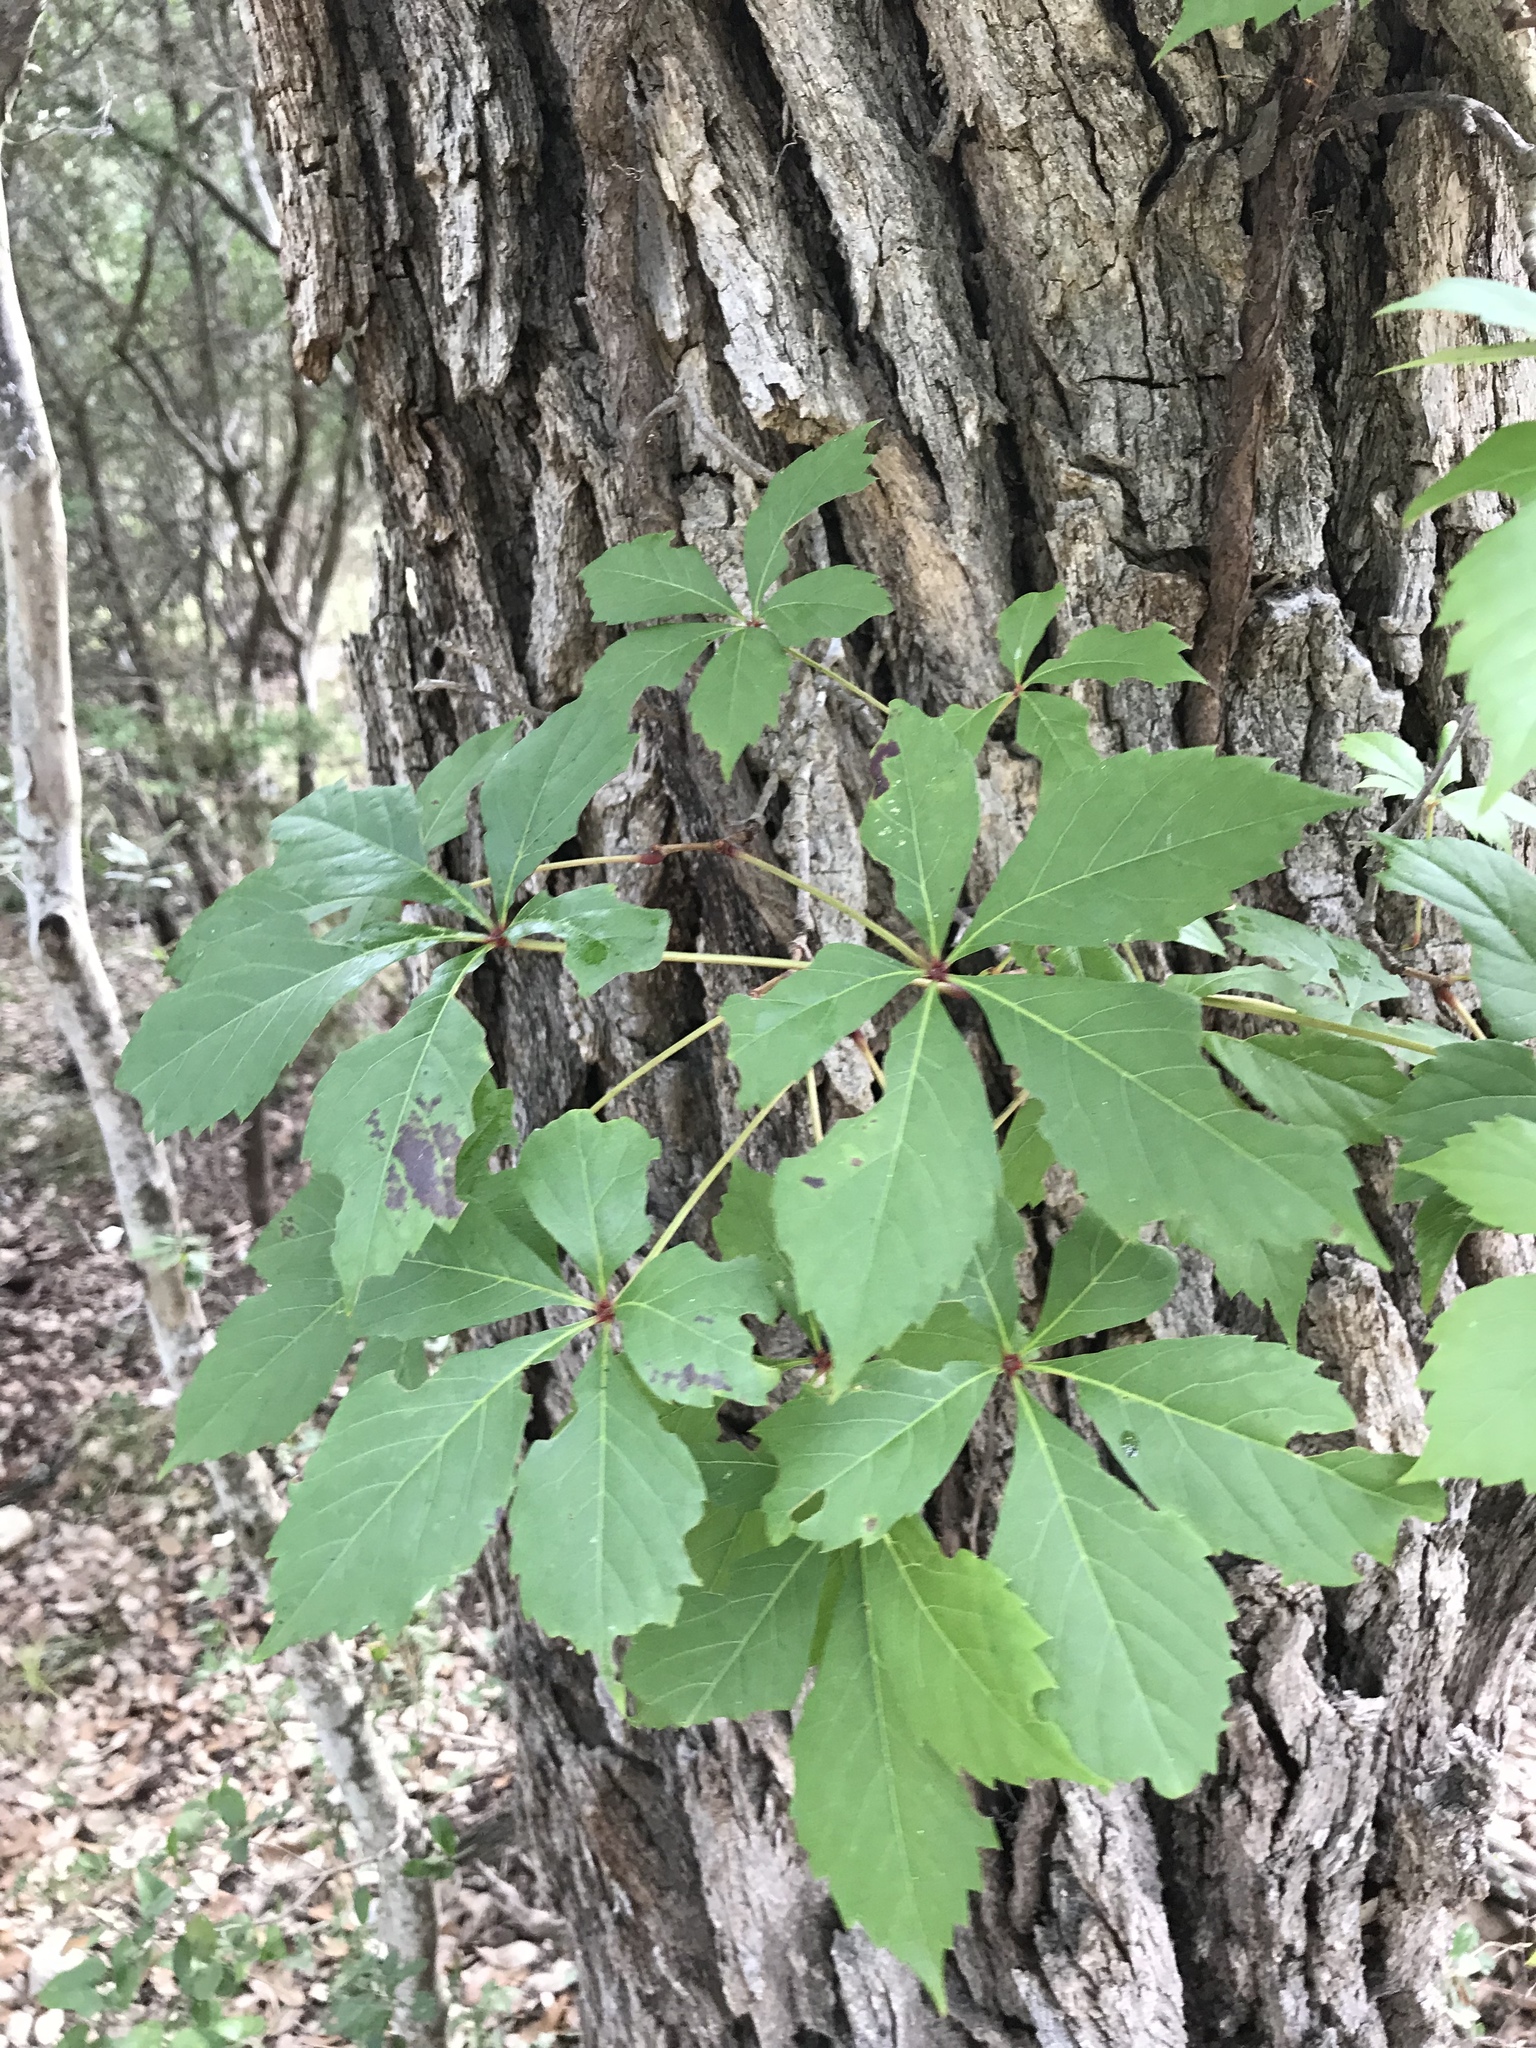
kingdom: Plantae
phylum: Tracheophyta
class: Magnoliopsida
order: Vitales
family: Vitaceae
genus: Parthenocissus
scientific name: Parthenocissus quinquefolia
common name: Virginia-creeper
